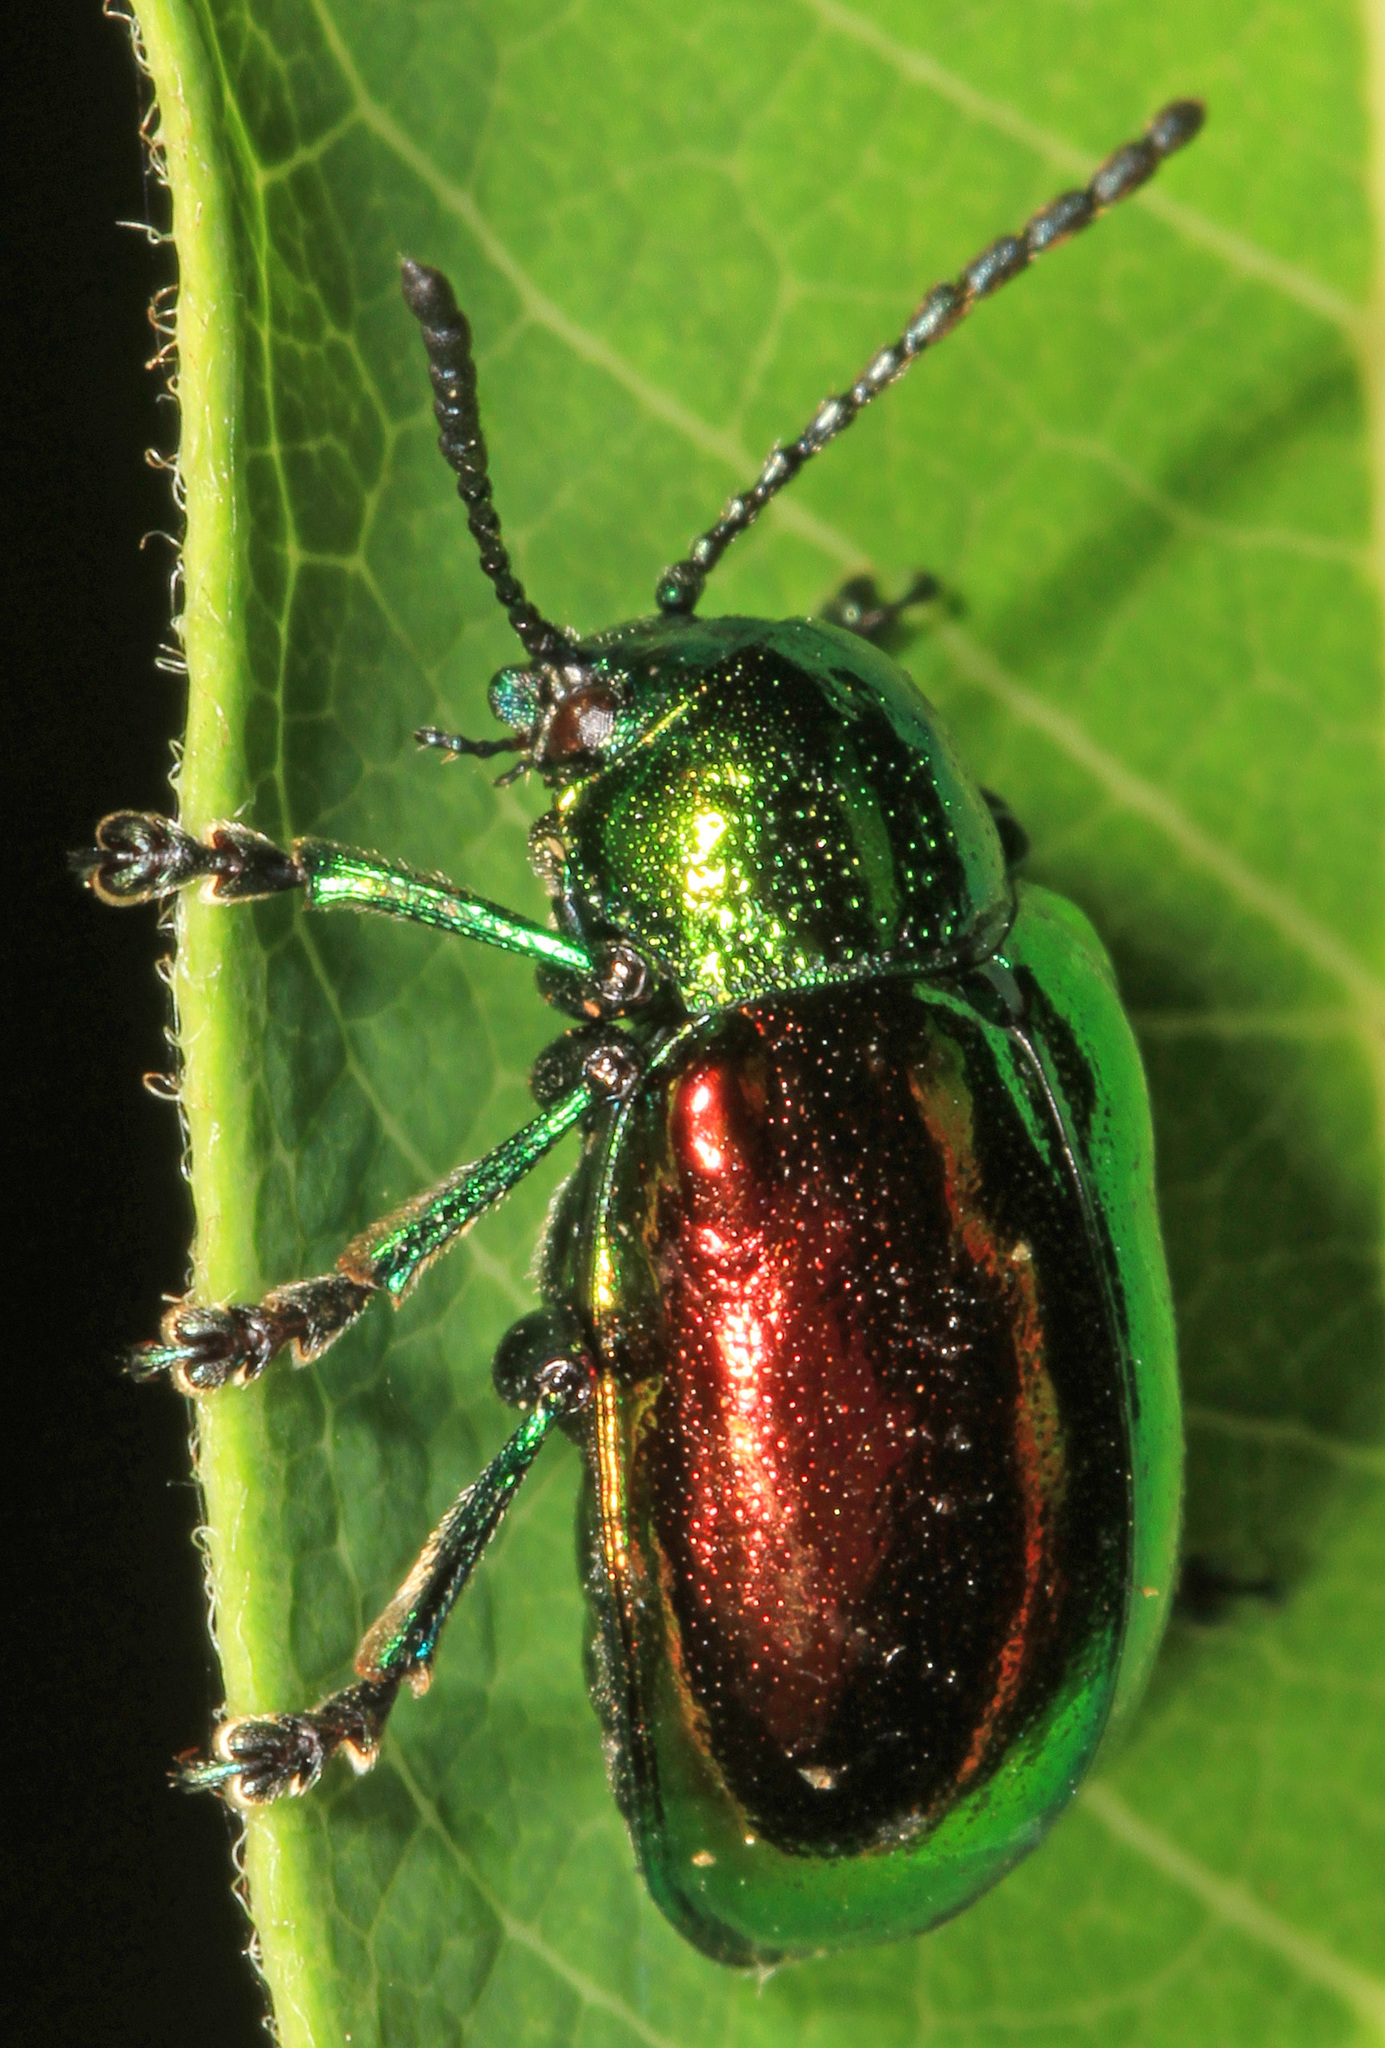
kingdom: Animalia
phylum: Arthropoda
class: Insecta
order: Coleoptera
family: Chrysomelidae
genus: Chrysochus
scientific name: Chrysochus auratus
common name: Dogbane leaf beetle
